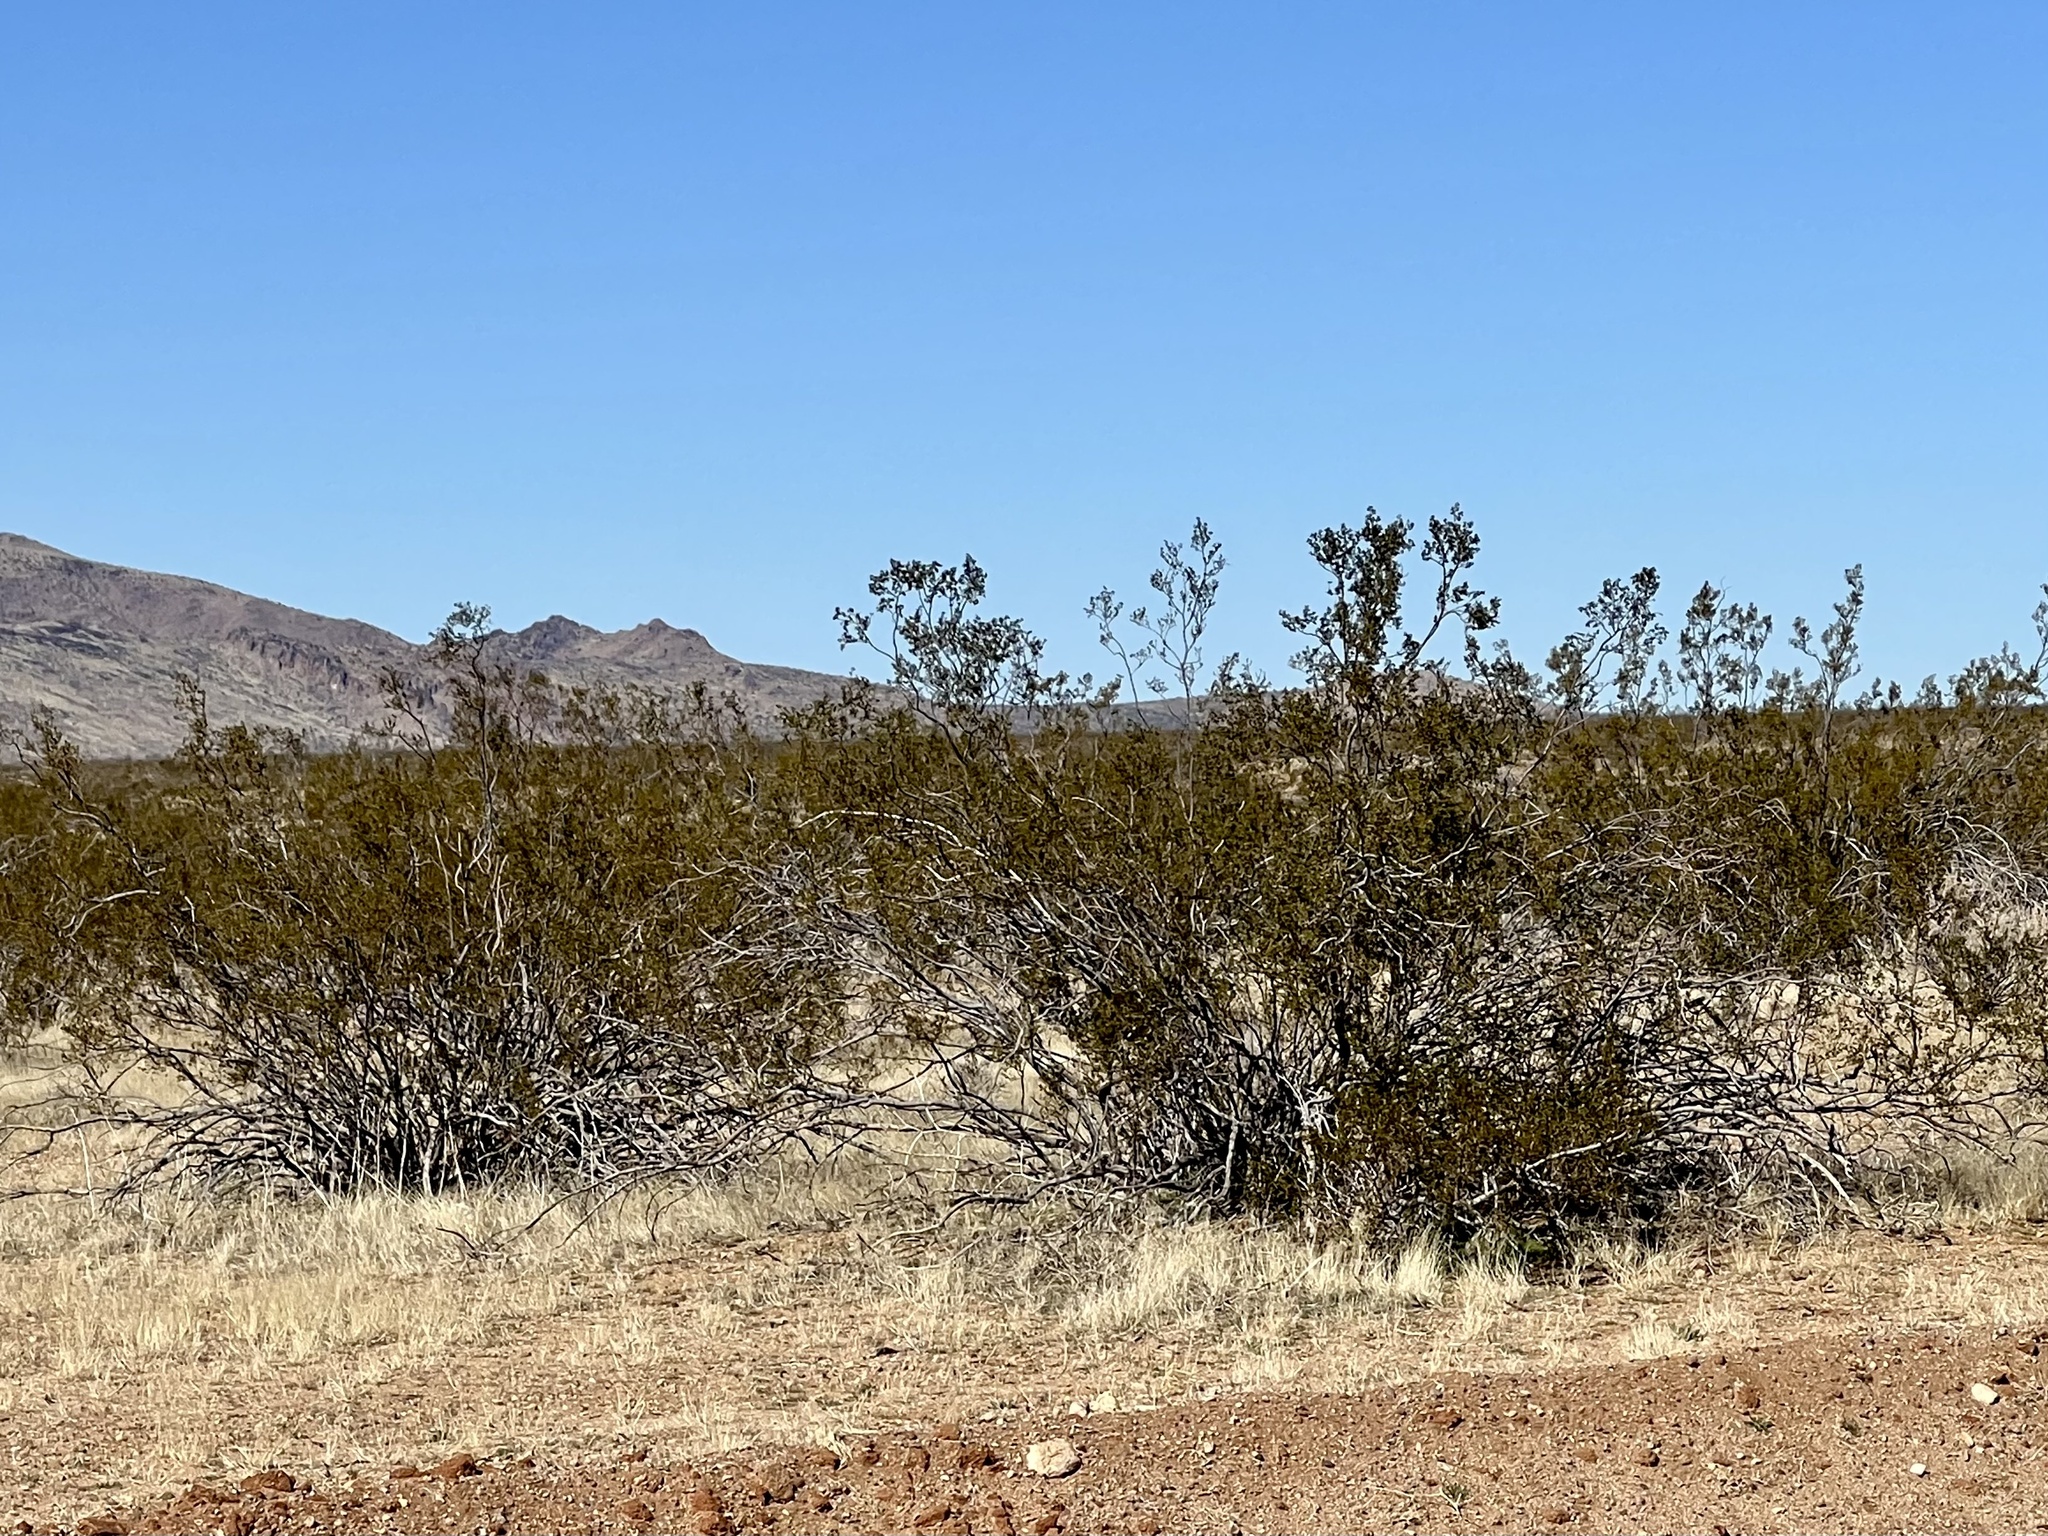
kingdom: Plantae
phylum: Tracheophyta
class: Magnoliopsida
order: Zygophyllales
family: Zygophyllaceae
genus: Larrea
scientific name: Larrea tridentata
